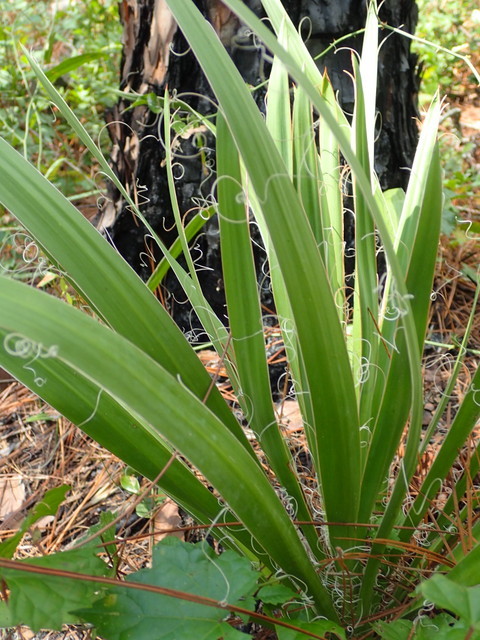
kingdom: Plantae
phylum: Tracheophyta
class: Liliopsida
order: Asparagales
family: Asparagaceae
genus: Yucca
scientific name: Yucca filamentosa
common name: Adam's-needle
